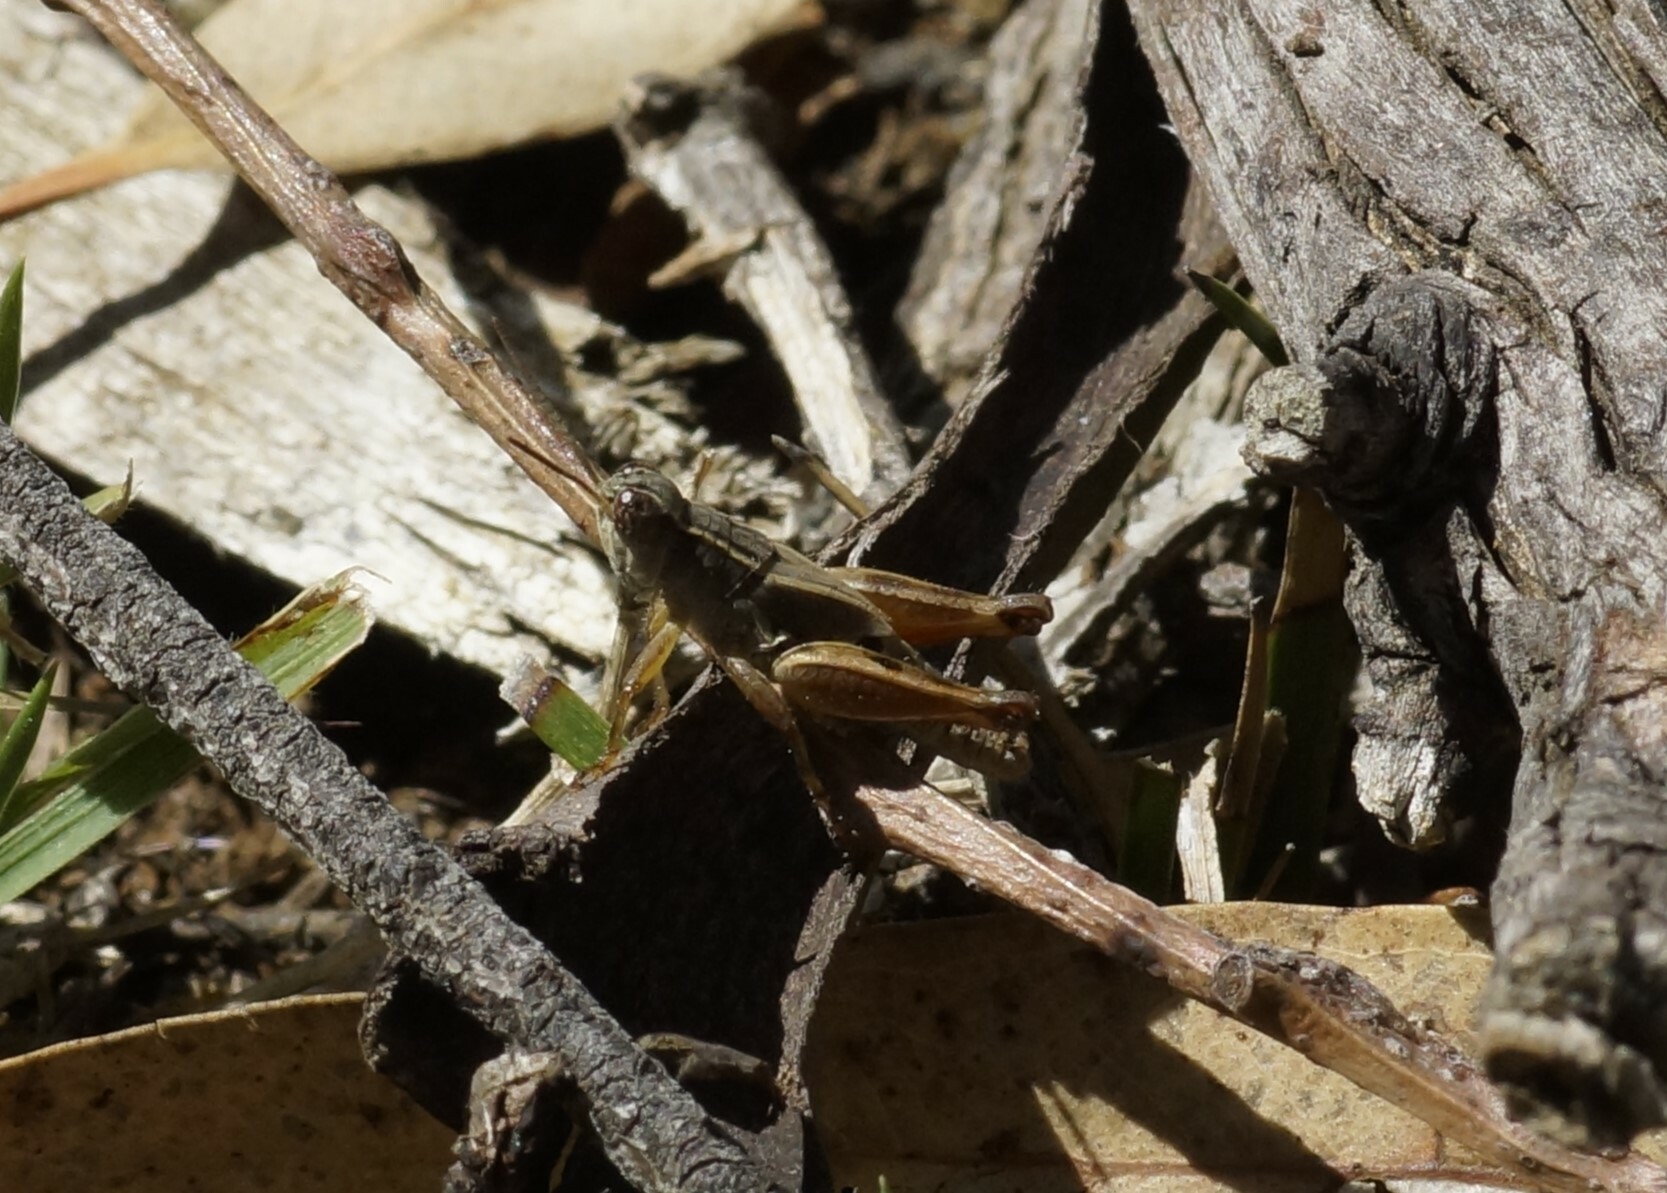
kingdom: Animalia
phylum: Arthropoda
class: Insecta
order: Orthoptera
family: Acrididae
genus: Phaulacridium
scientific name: Phaulacridium vittatum
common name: Wingless grasshopper
